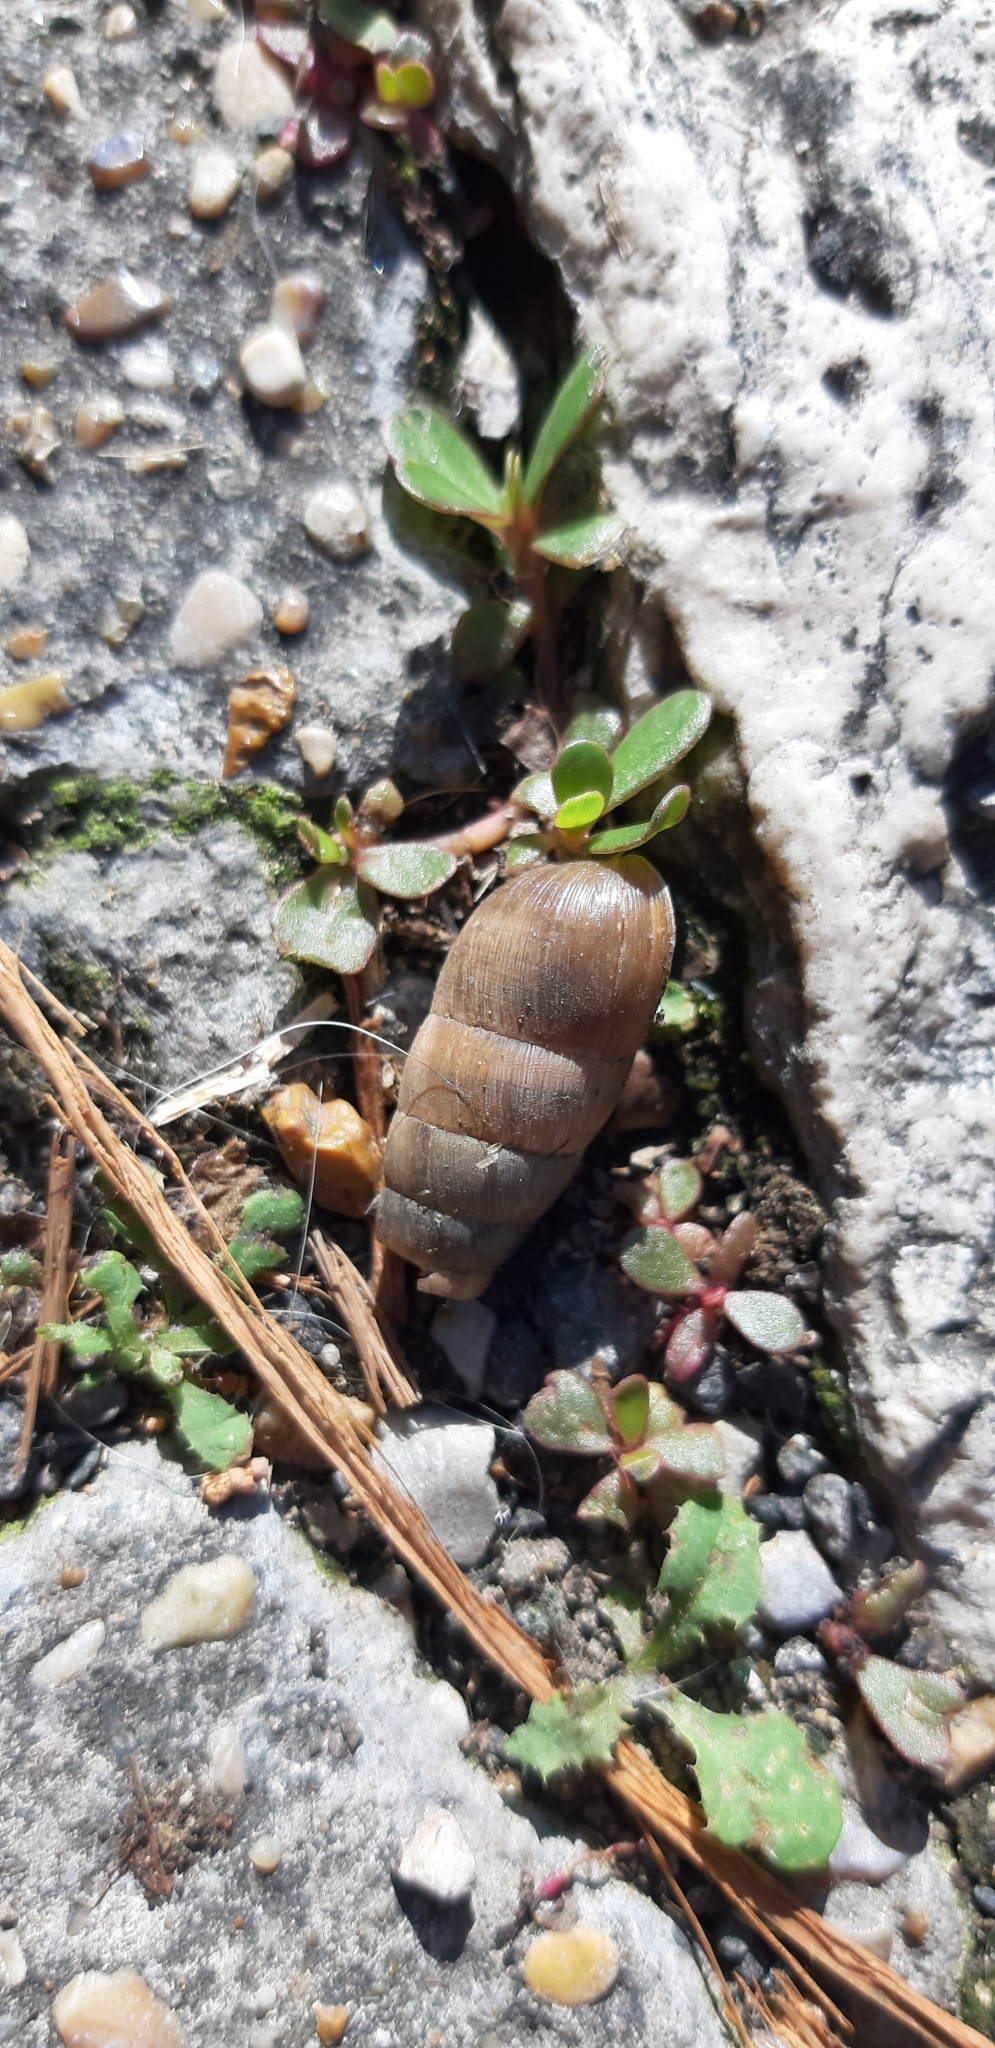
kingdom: Animalia
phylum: Mollusca
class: Gastropoda
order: Stylommatophora
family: Achatinidae
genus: Rumina
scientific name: Rumina decollata
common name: Decollate snail
